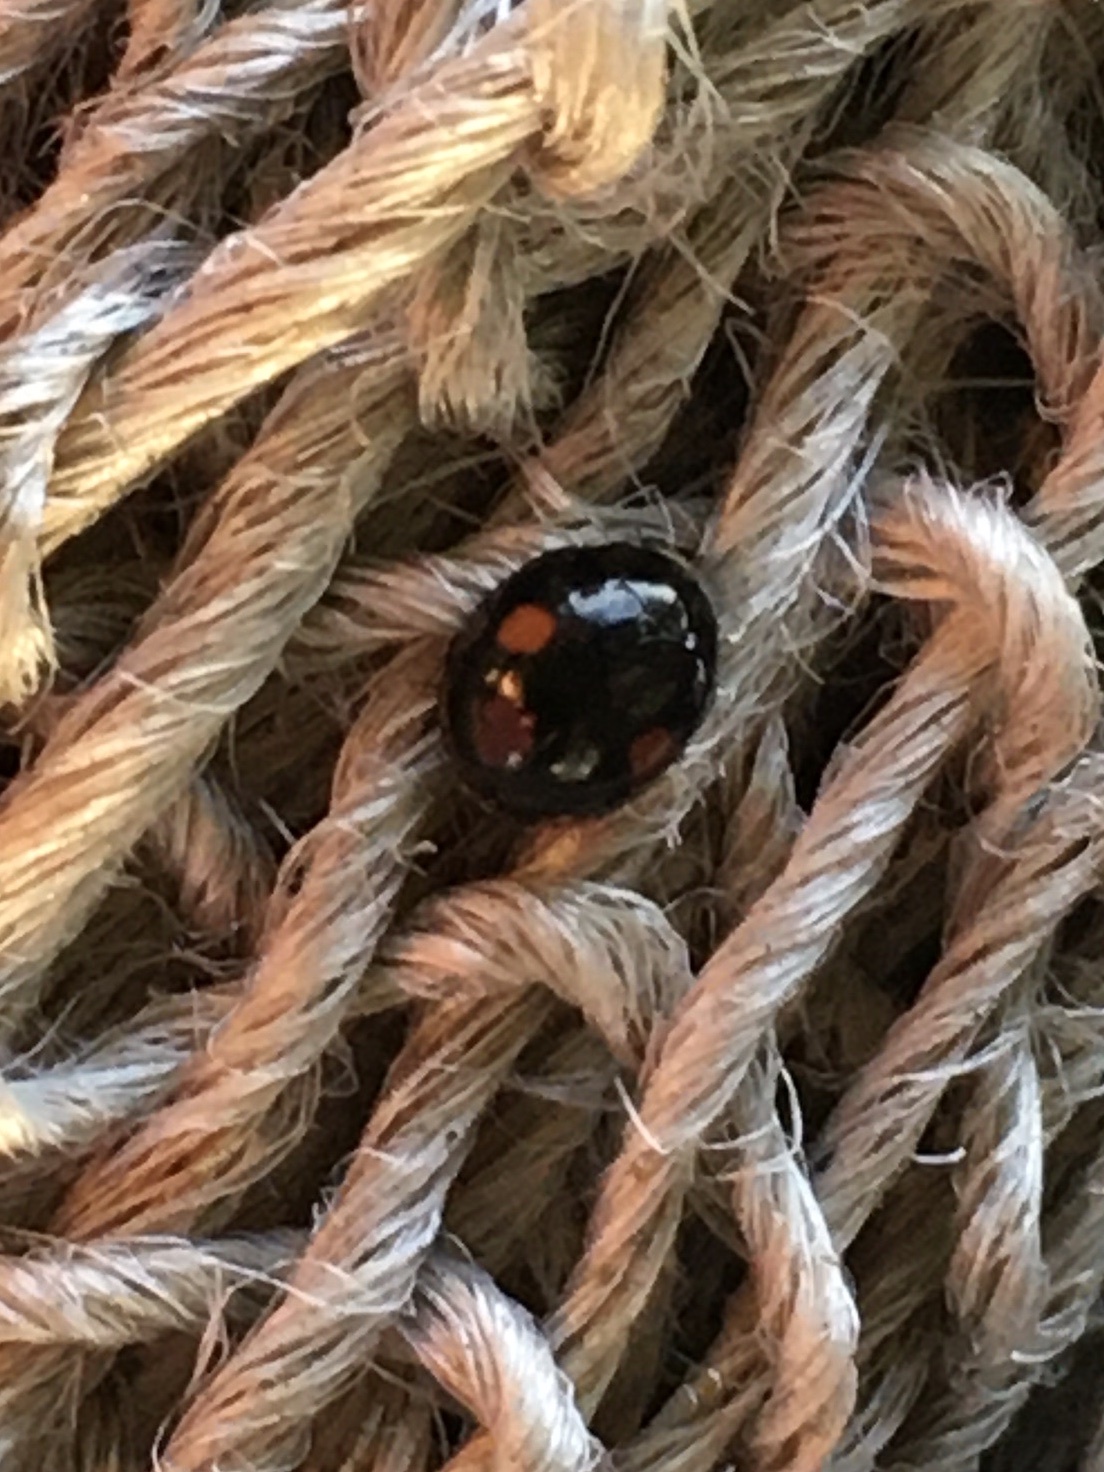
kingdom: Animalia
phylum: Arthropoda
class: Insecta
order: Coleoptera
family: Coccinellidae
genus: Chilocorus
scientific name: Chilocorus stigma
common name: Twicestabbed lady beetle
